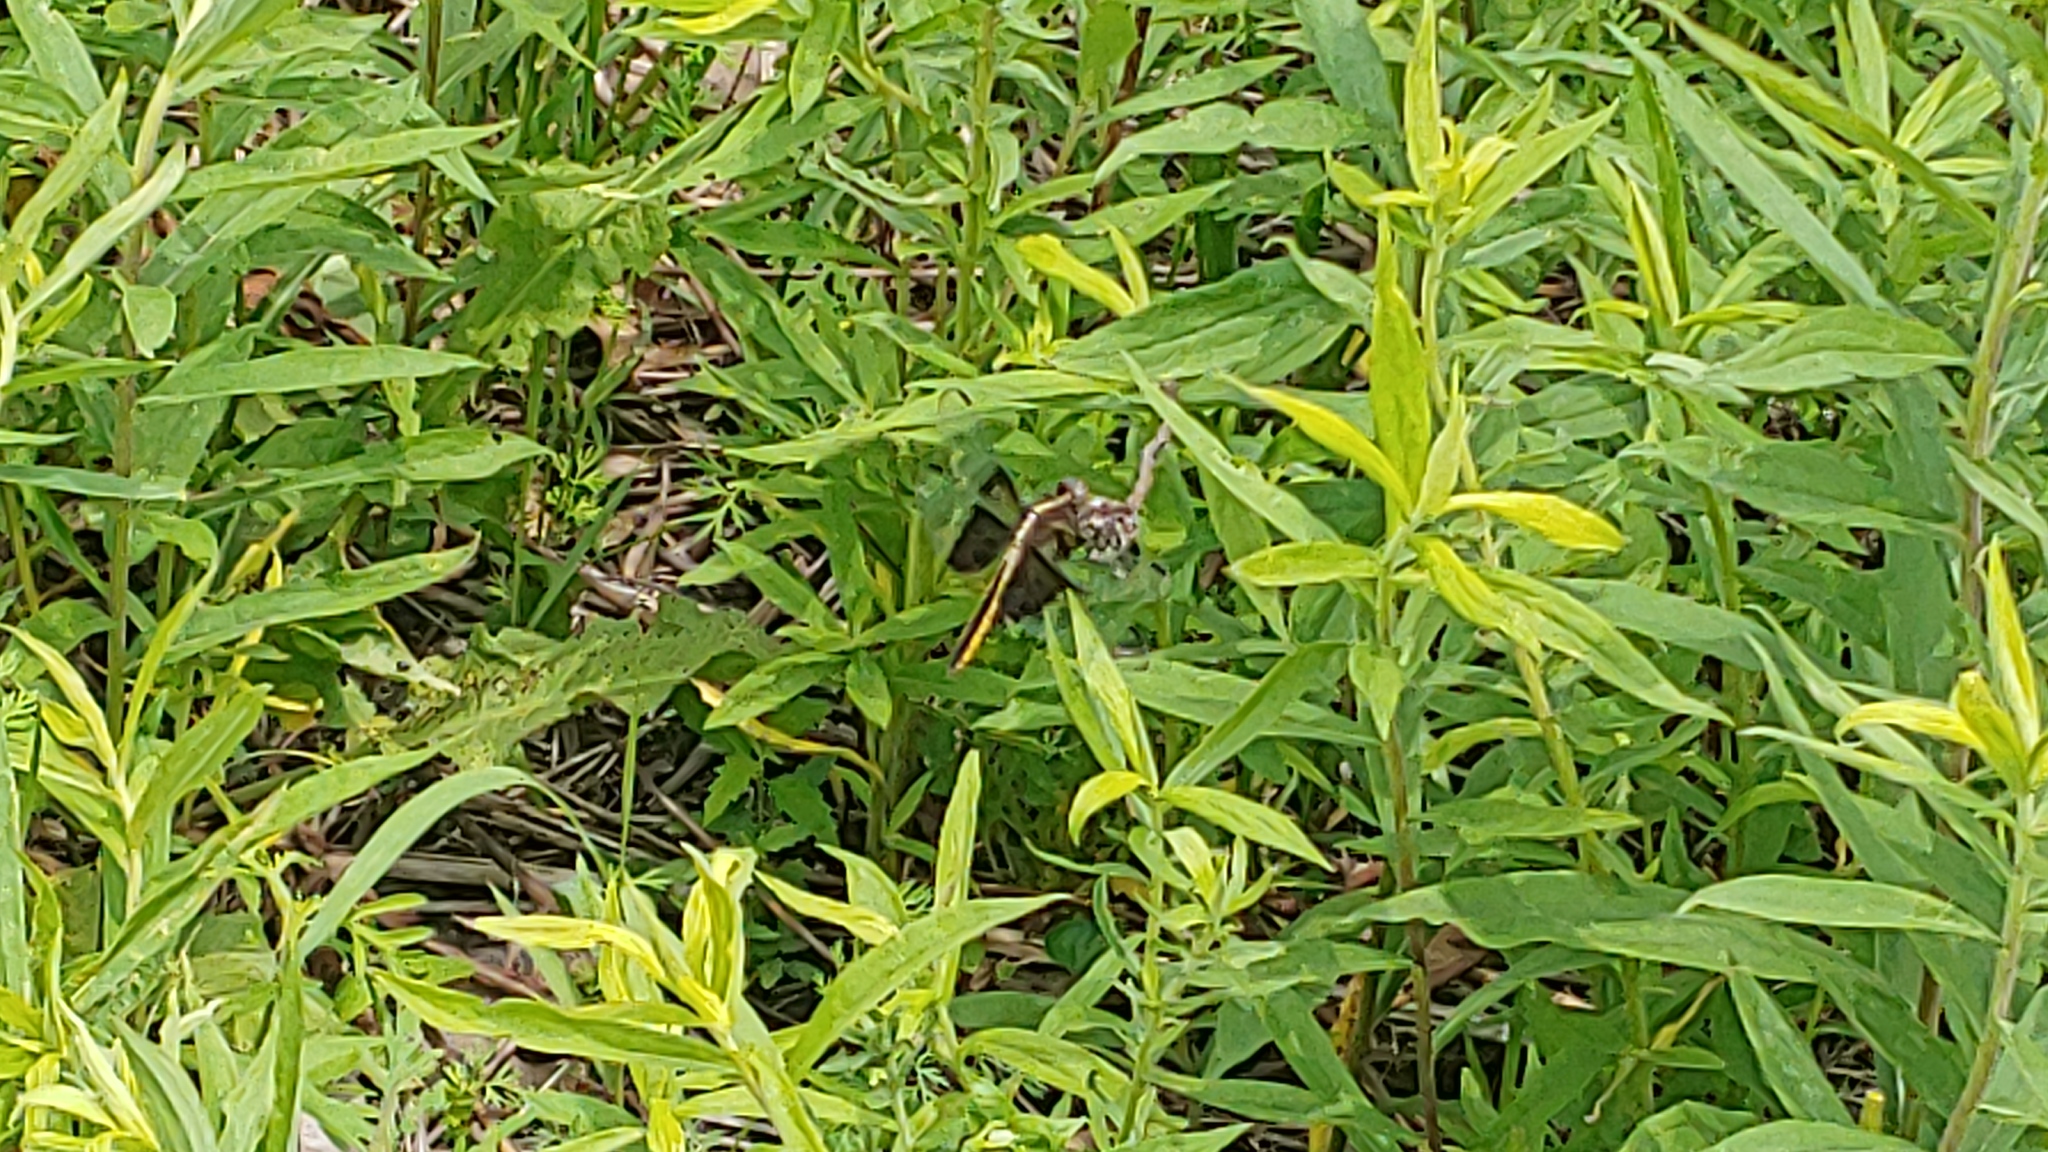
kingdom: Animalia
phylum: Arthropoda
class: Insecta
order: Odonata
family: Libellulidae
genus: Libellula
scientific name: Libellula luctuosa
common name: Widow skimmer
